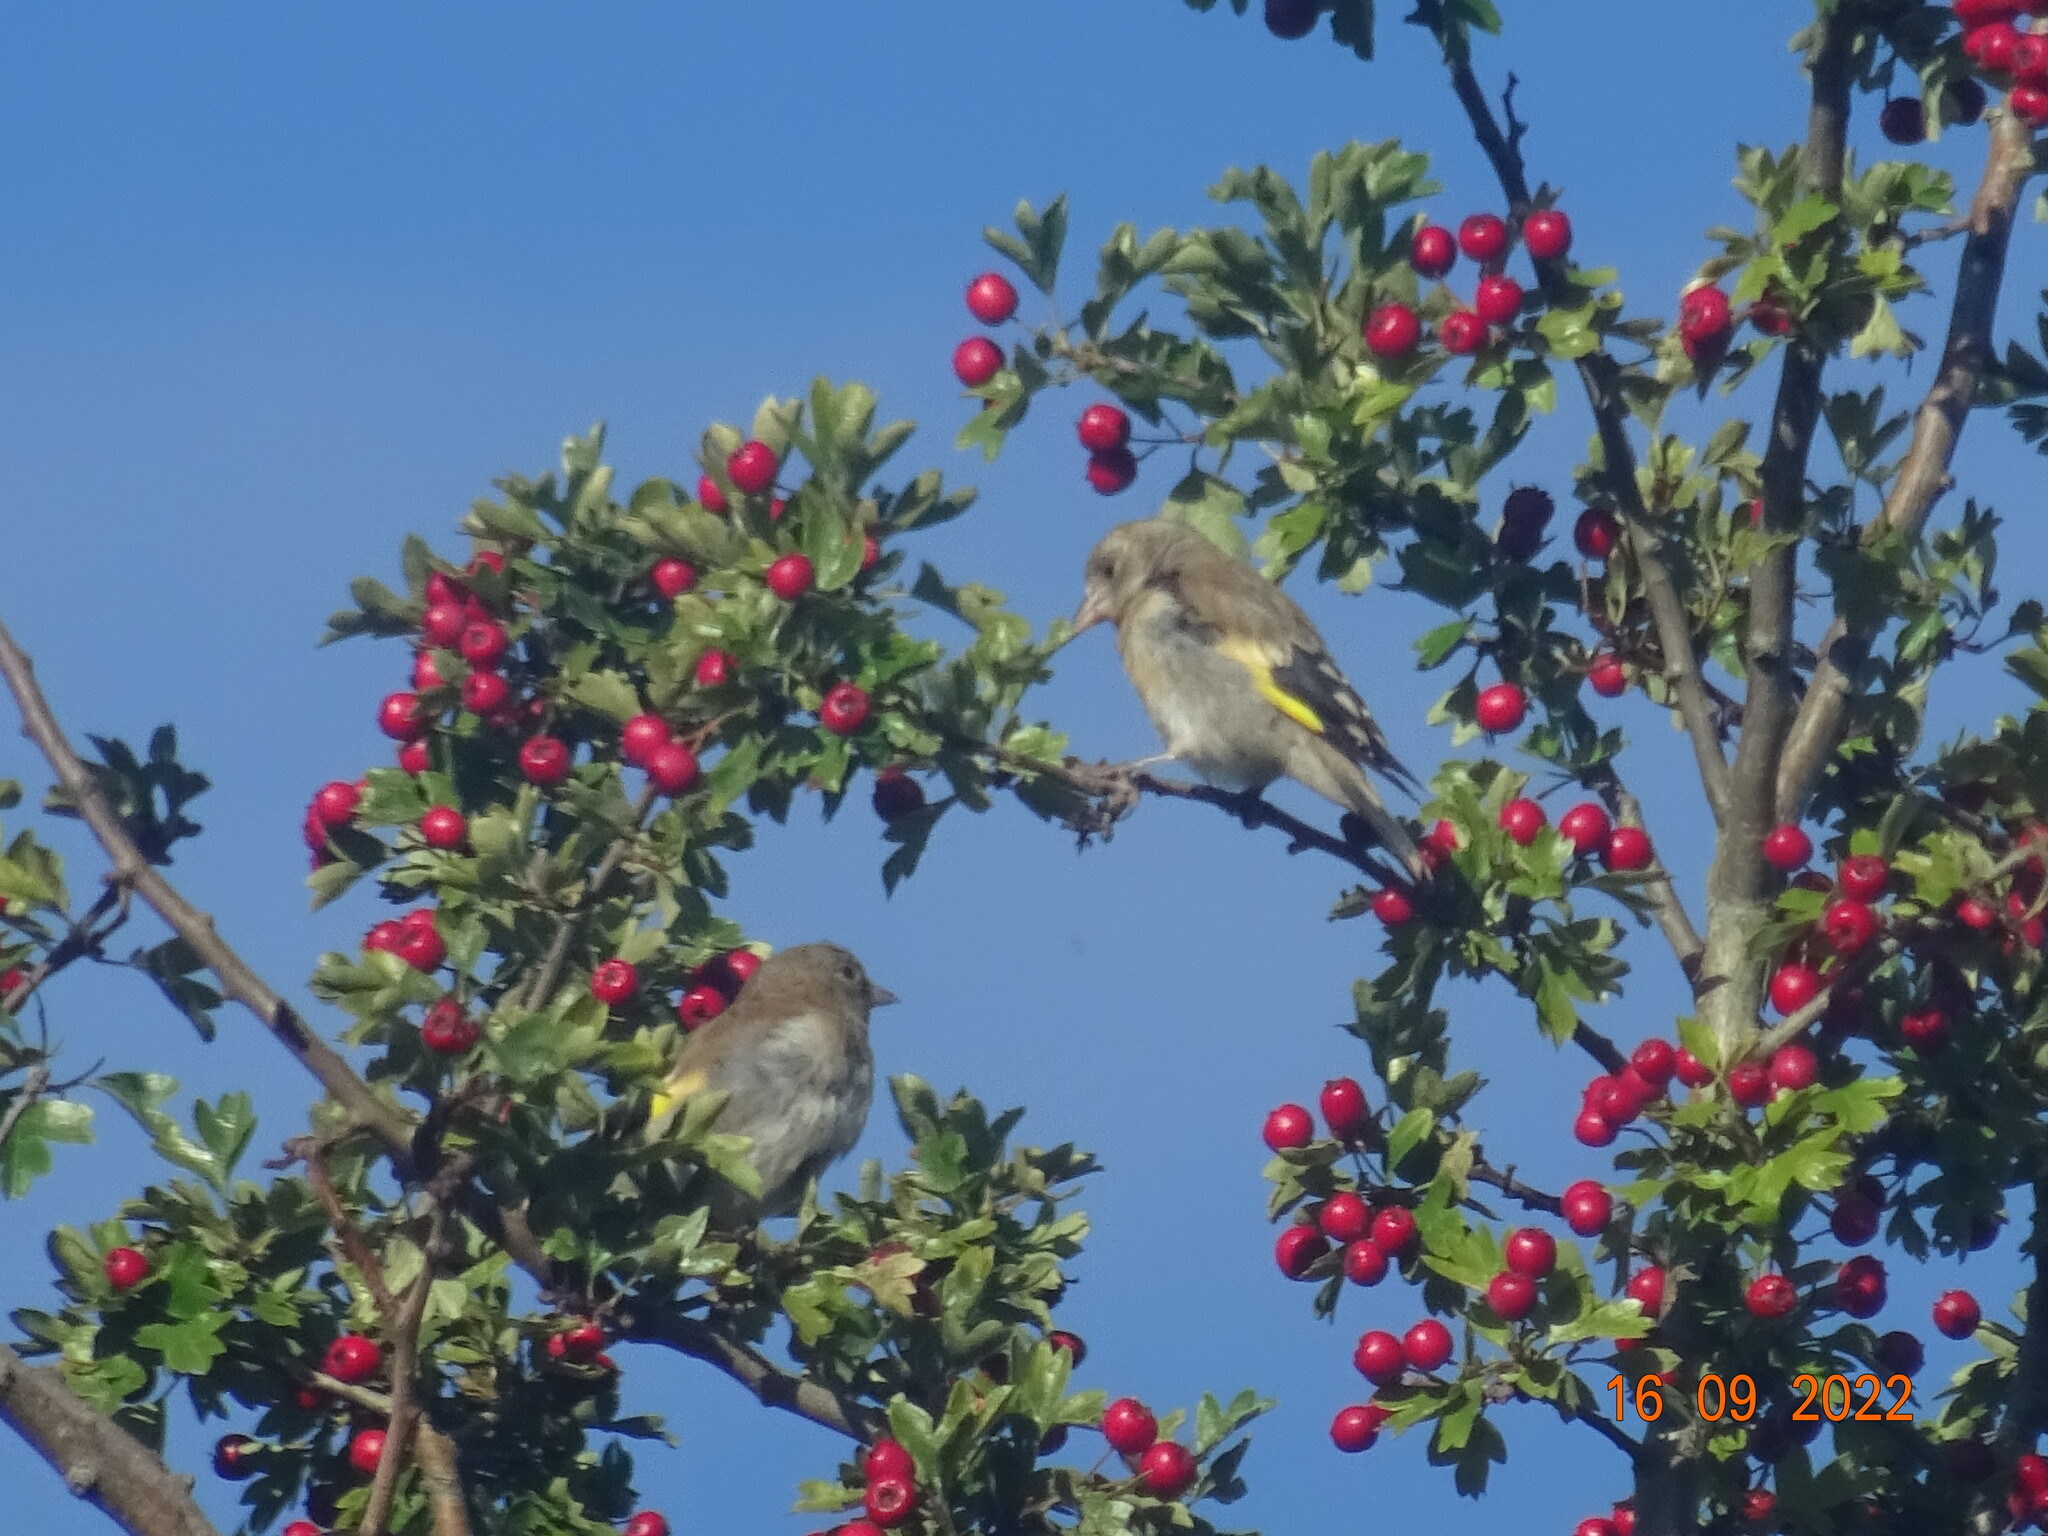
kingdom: Animalia
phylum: Chordata
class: Aves
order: Passeriformes
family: Fringillidae
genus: Carduelis
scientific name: Carduelis carduelis
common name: European goldfinch
